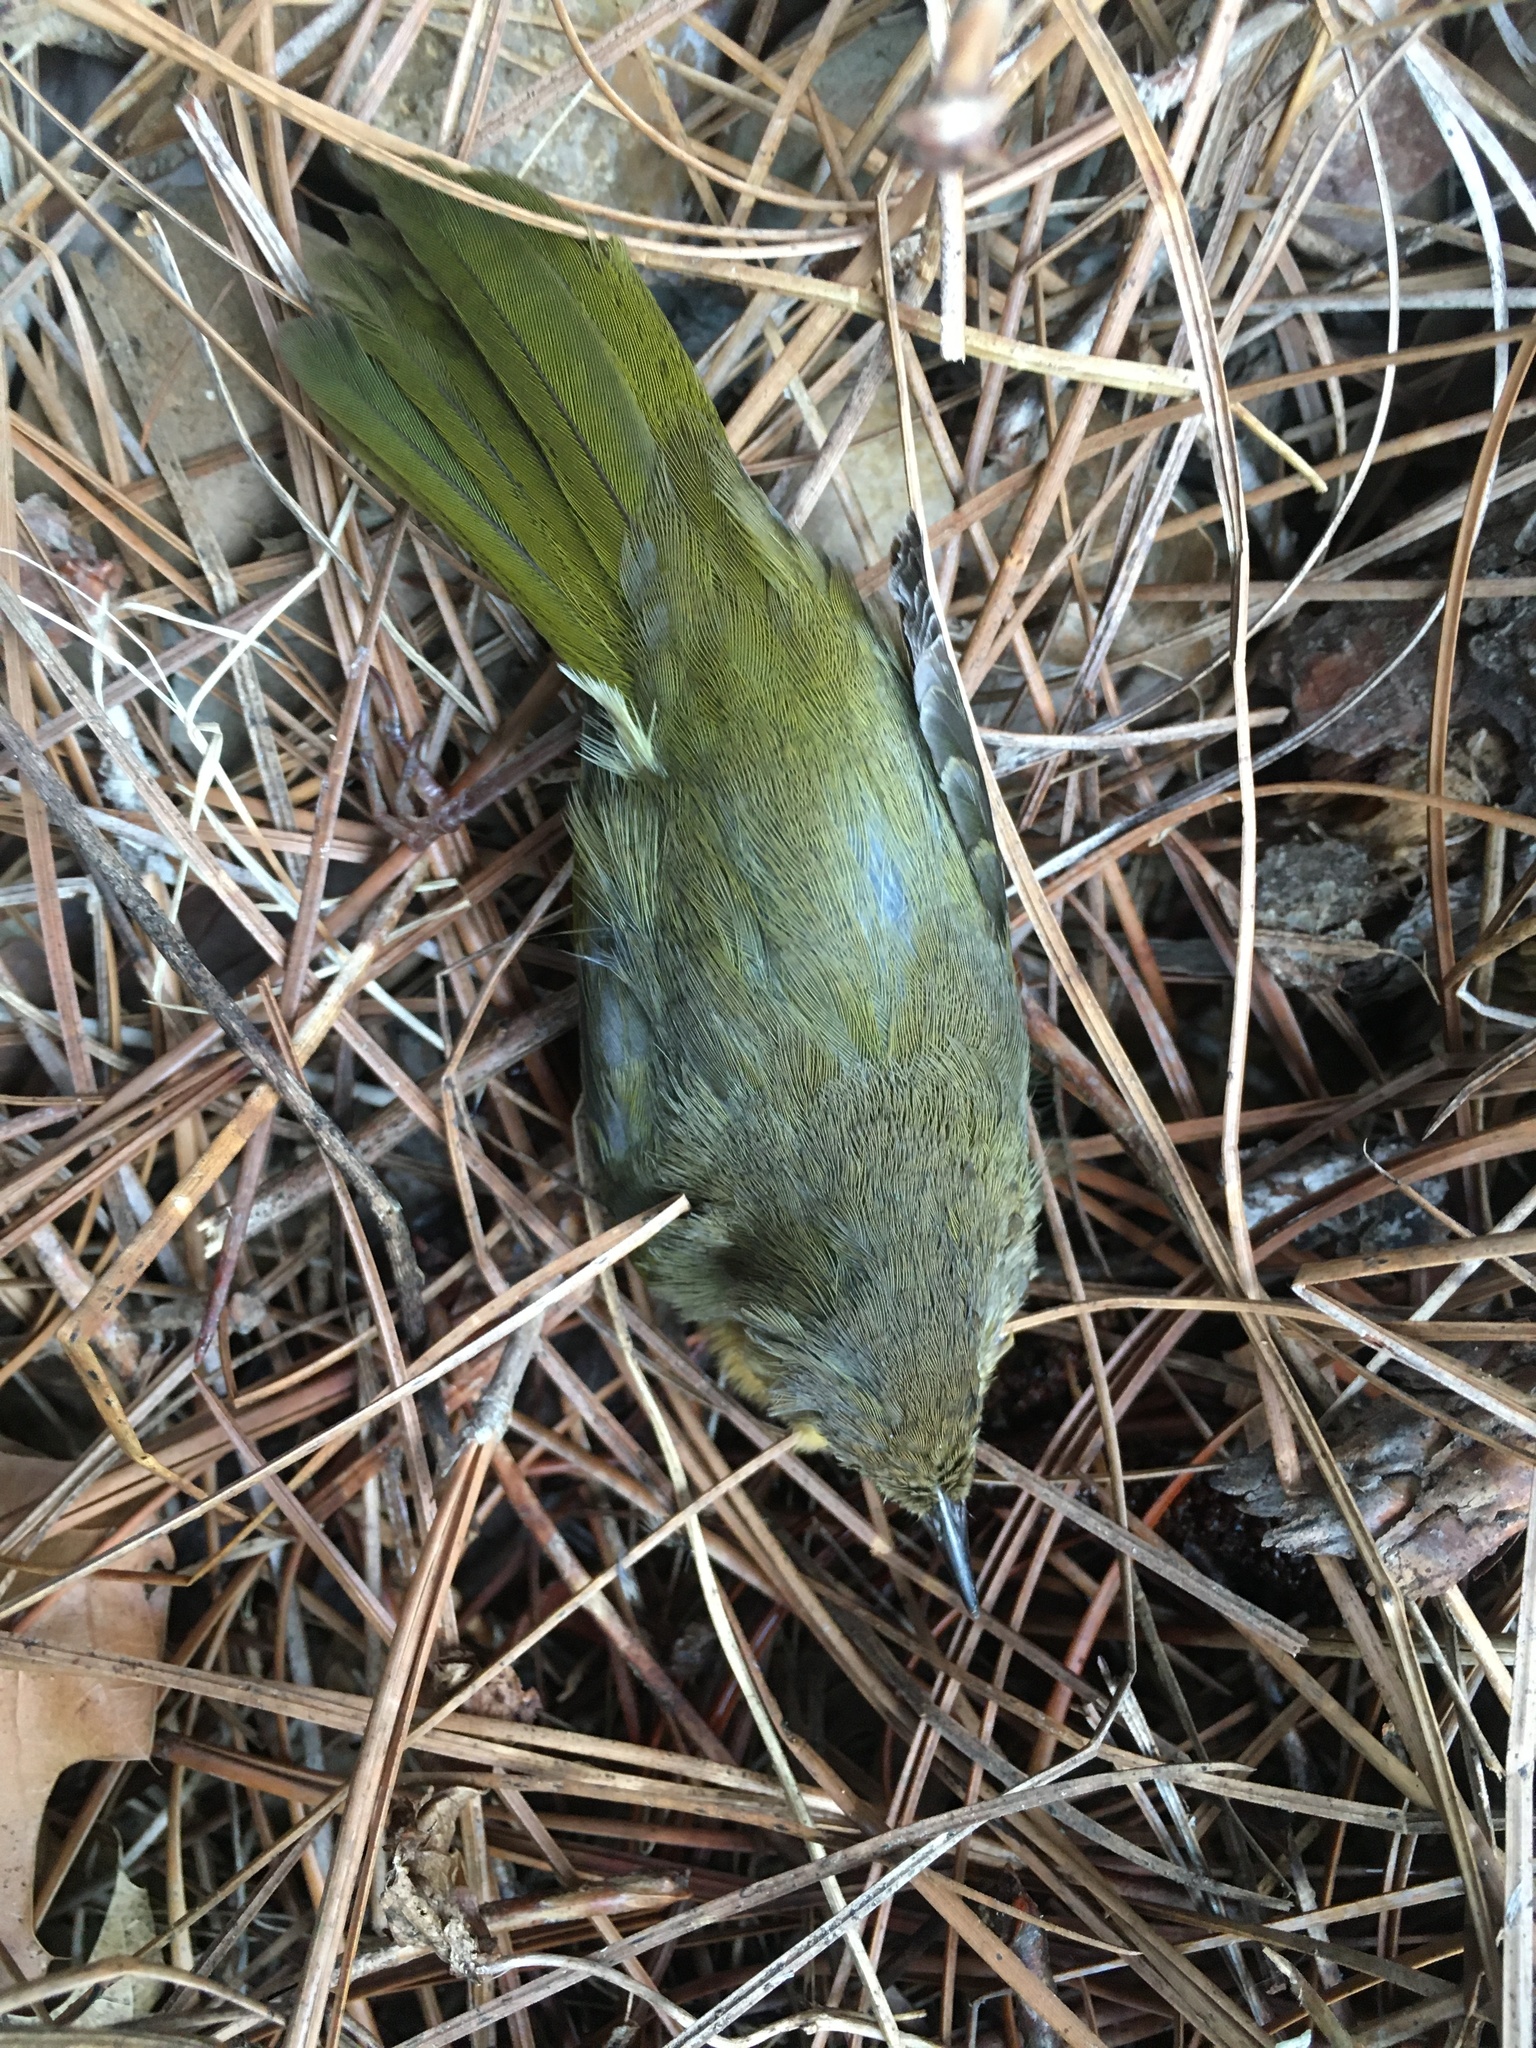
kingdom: Animalia
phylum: Chordata
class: Aves
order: Passeriformes
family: Parulidae
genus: Geothlypis
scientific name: Geothlypis trichas
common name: Common yellowthroat
